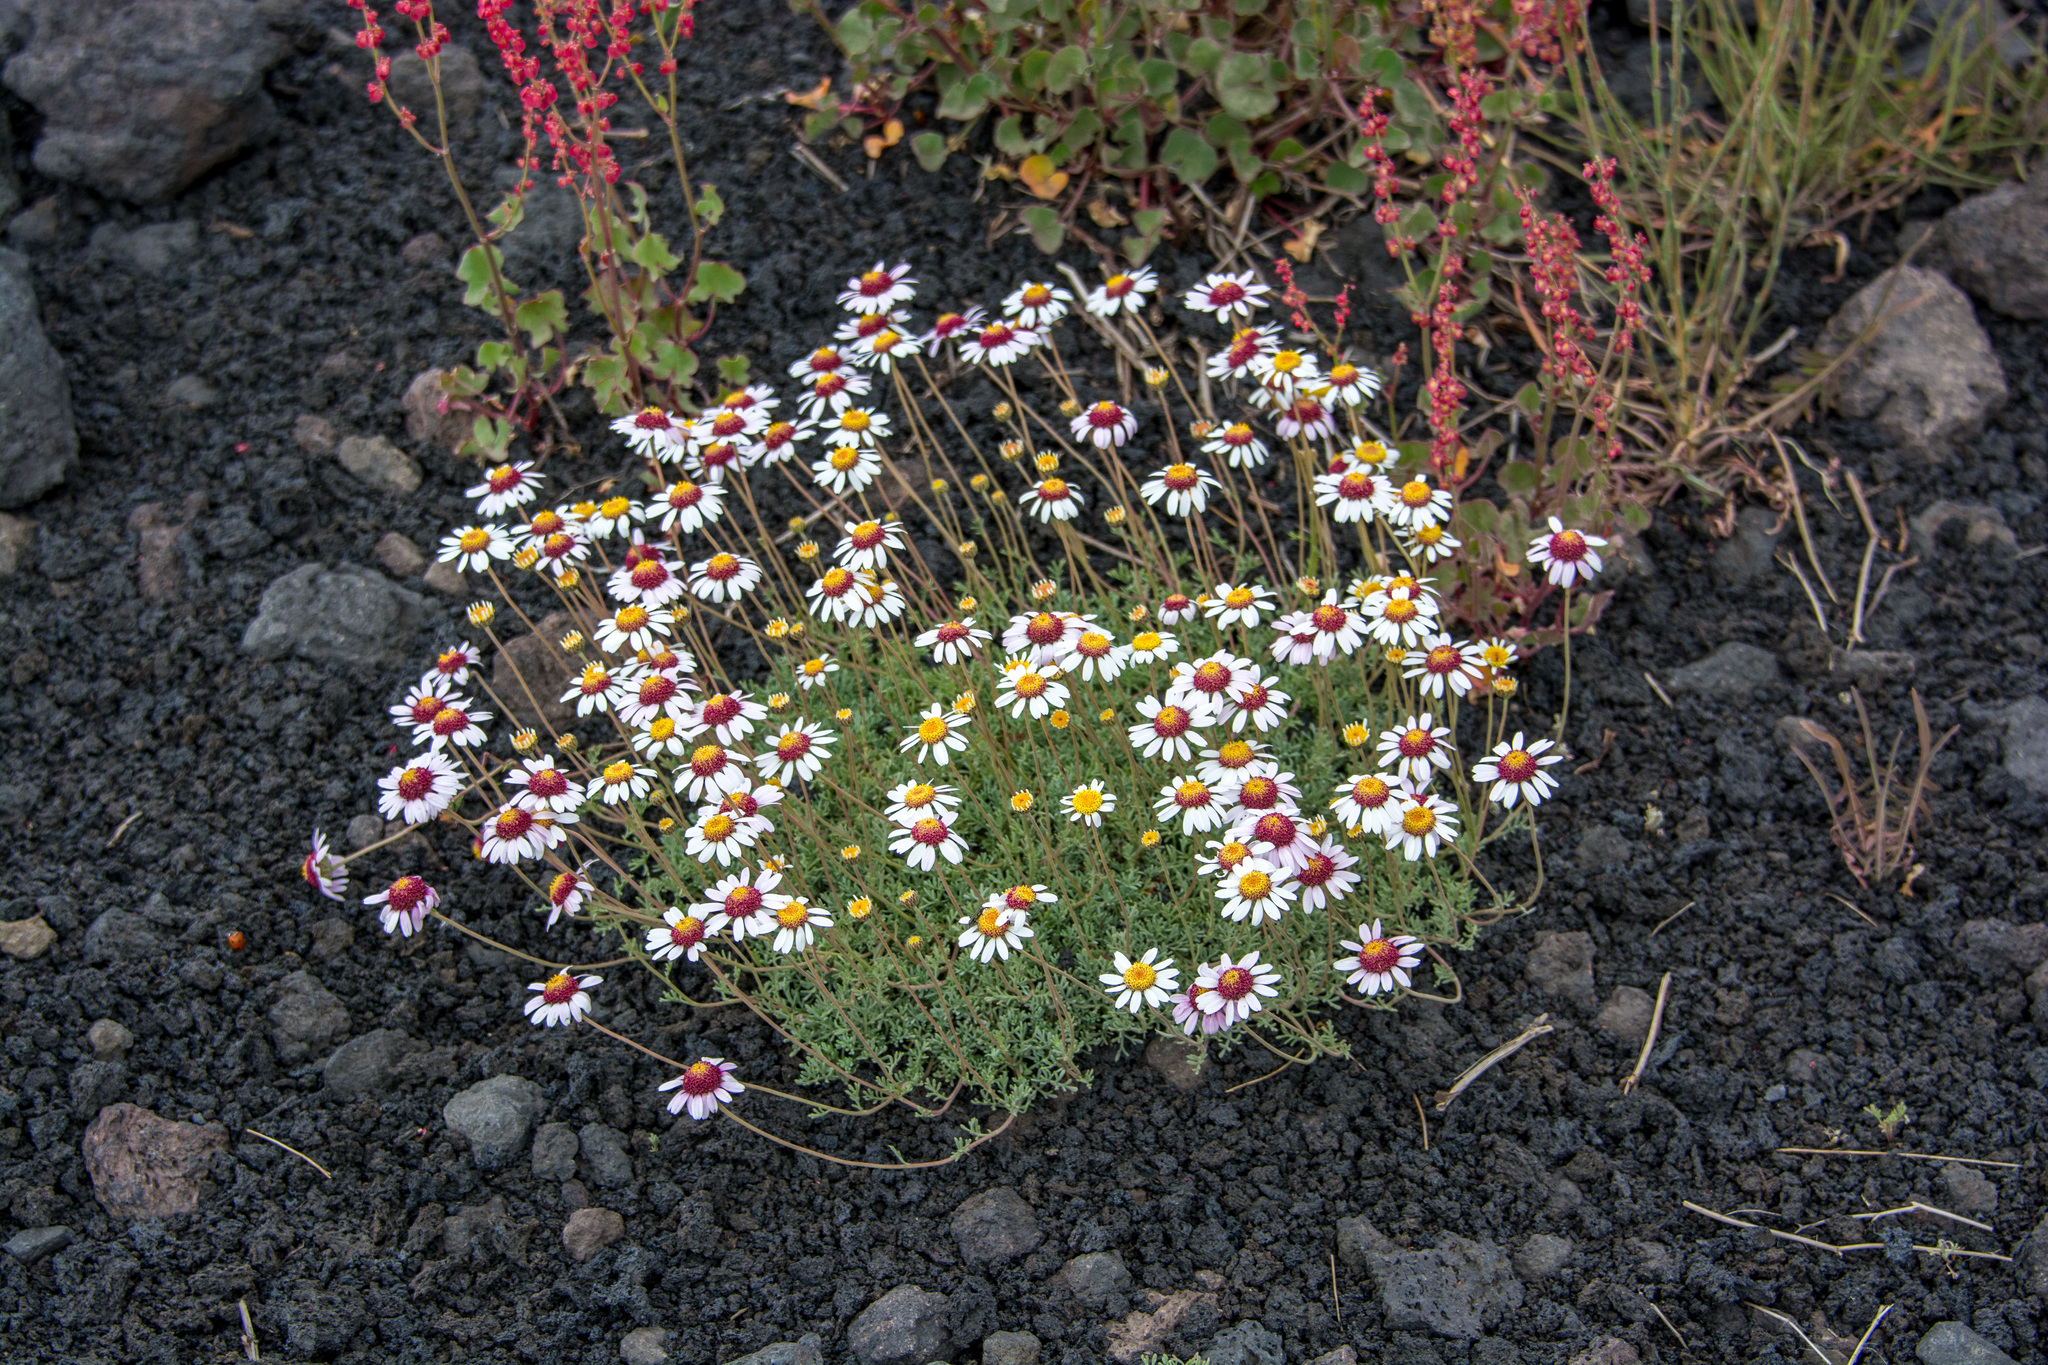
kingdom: Plantae
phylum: Tracheophyta
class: Magnoliopsida
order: Asterales
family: Asteraceae
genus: Anthemis
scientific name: Anthemis aetnensis
